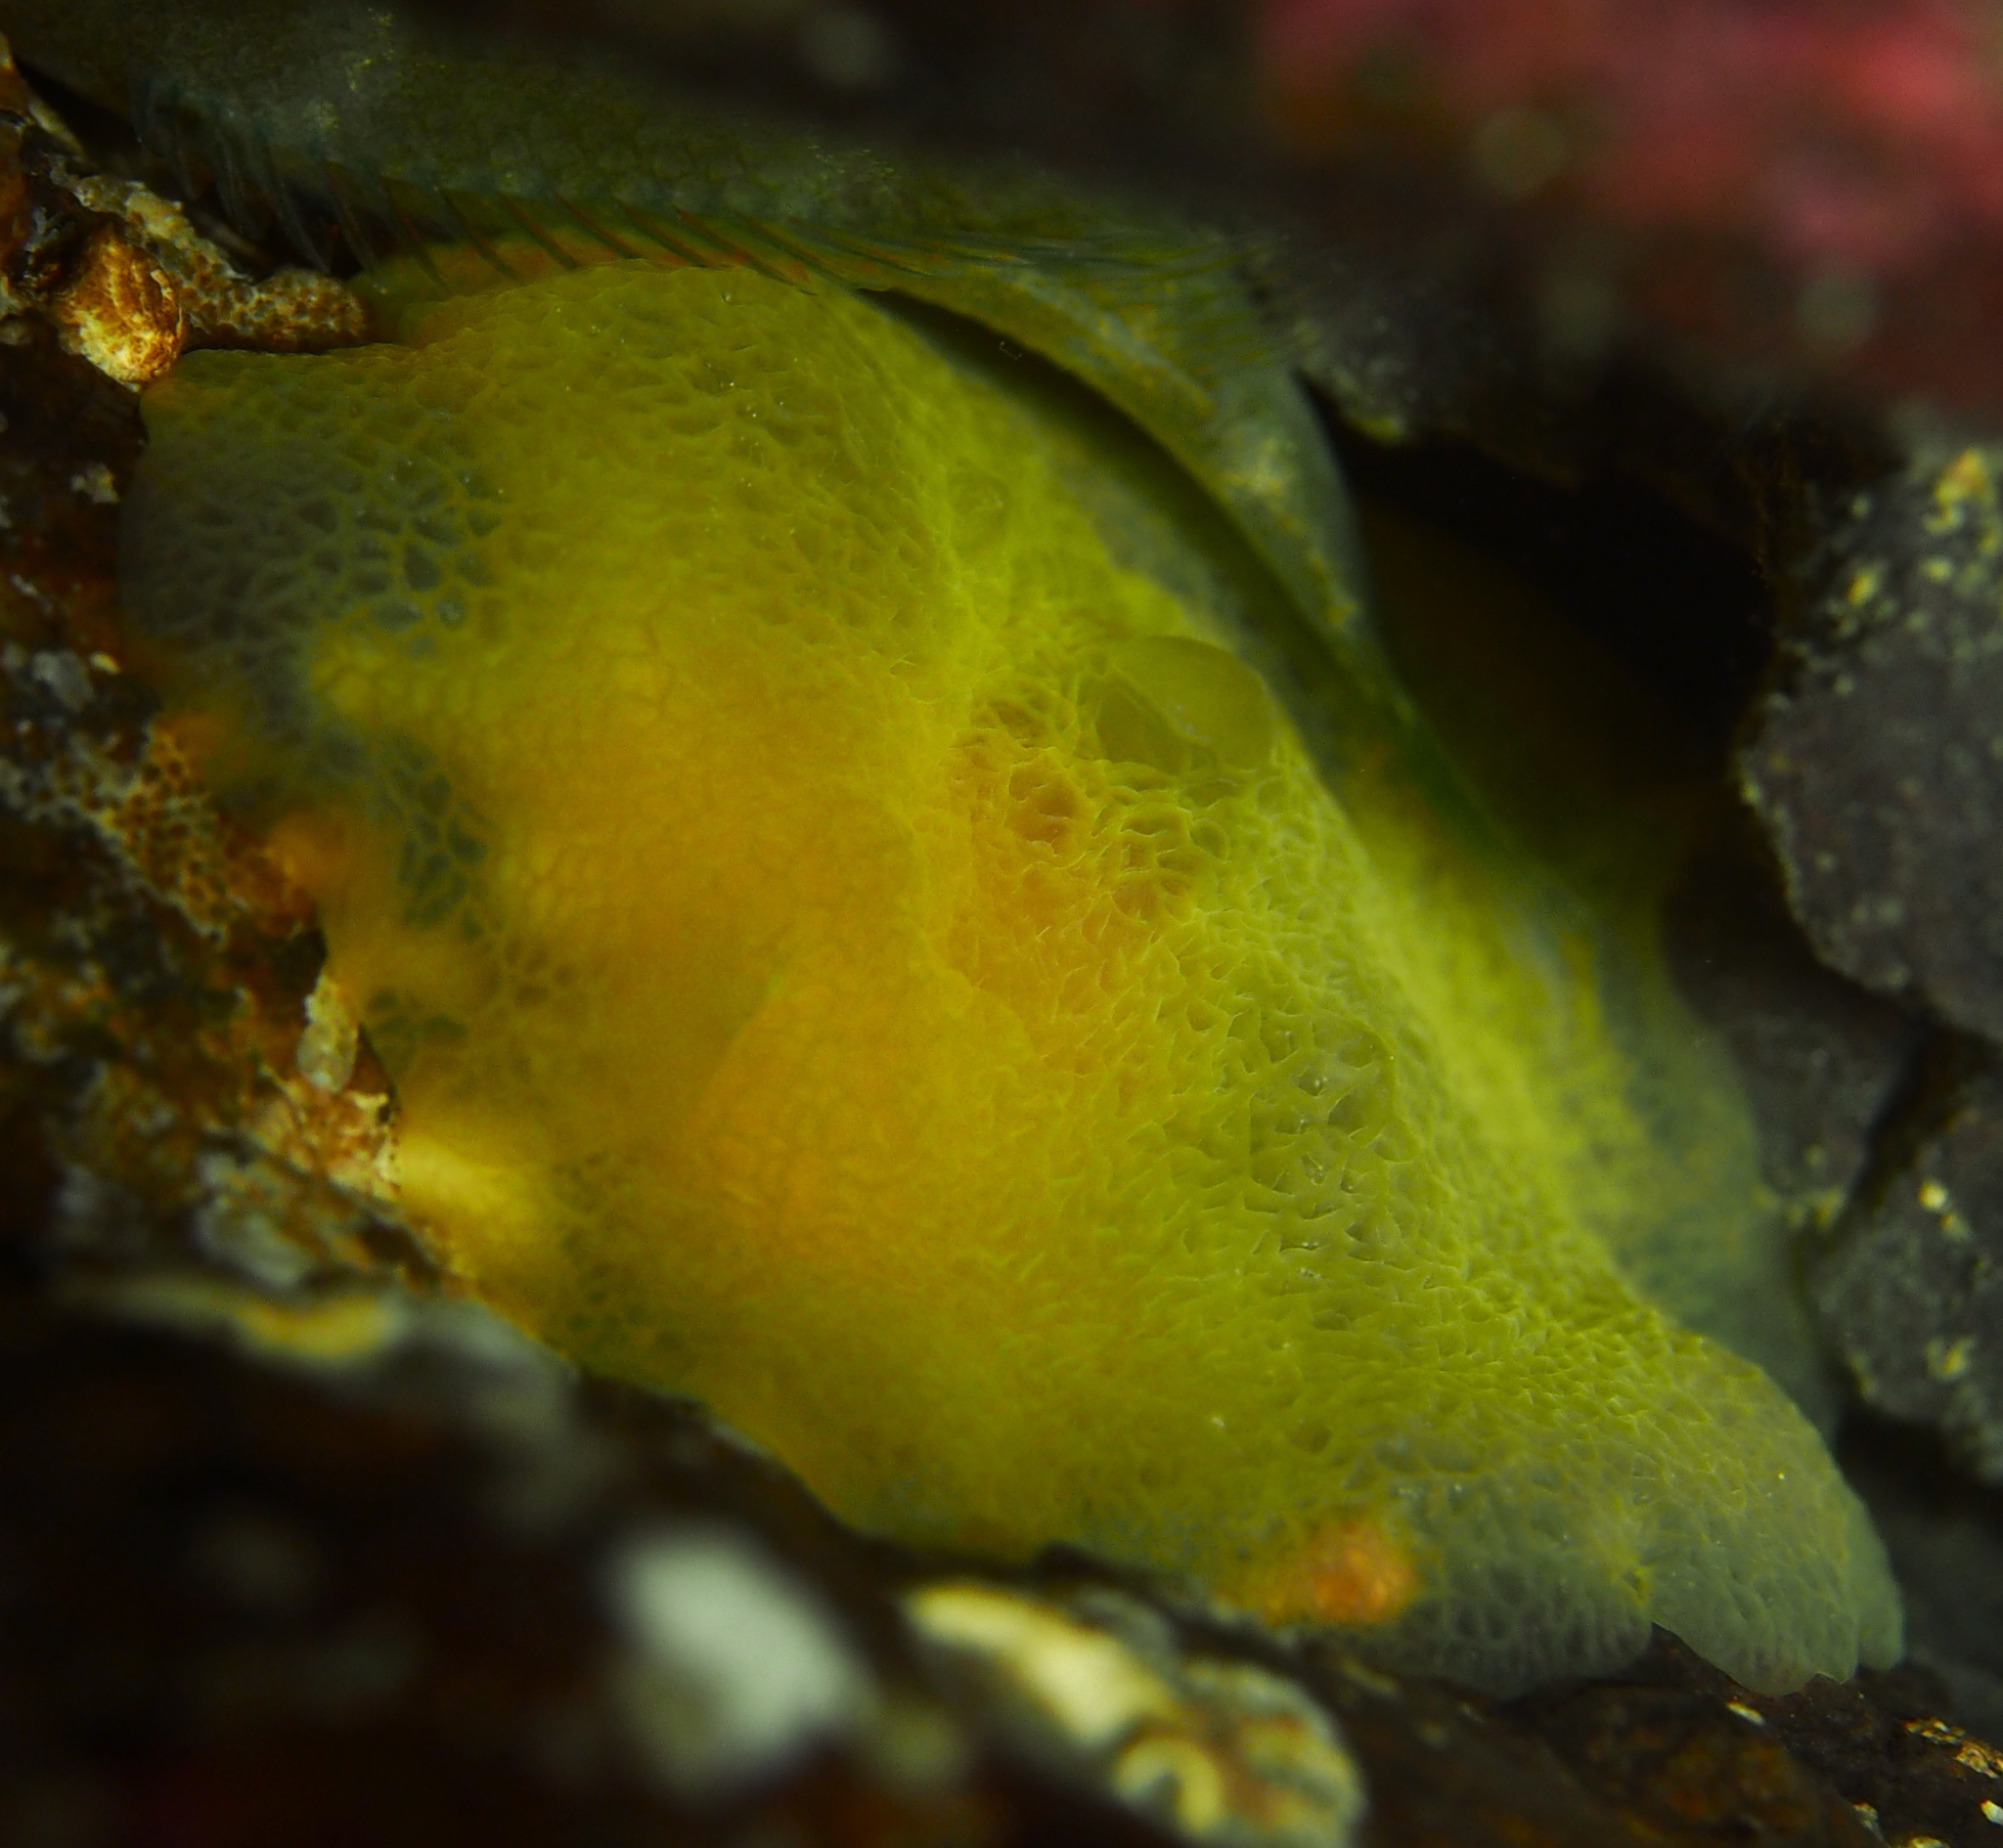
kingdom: Animalia
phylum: Mollusca
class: Gastropoda
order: Pleurobranchida
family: Pleurobranchidae
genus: Berthella
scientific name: Berthella plumula
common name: Yellow-plumed sea slug
